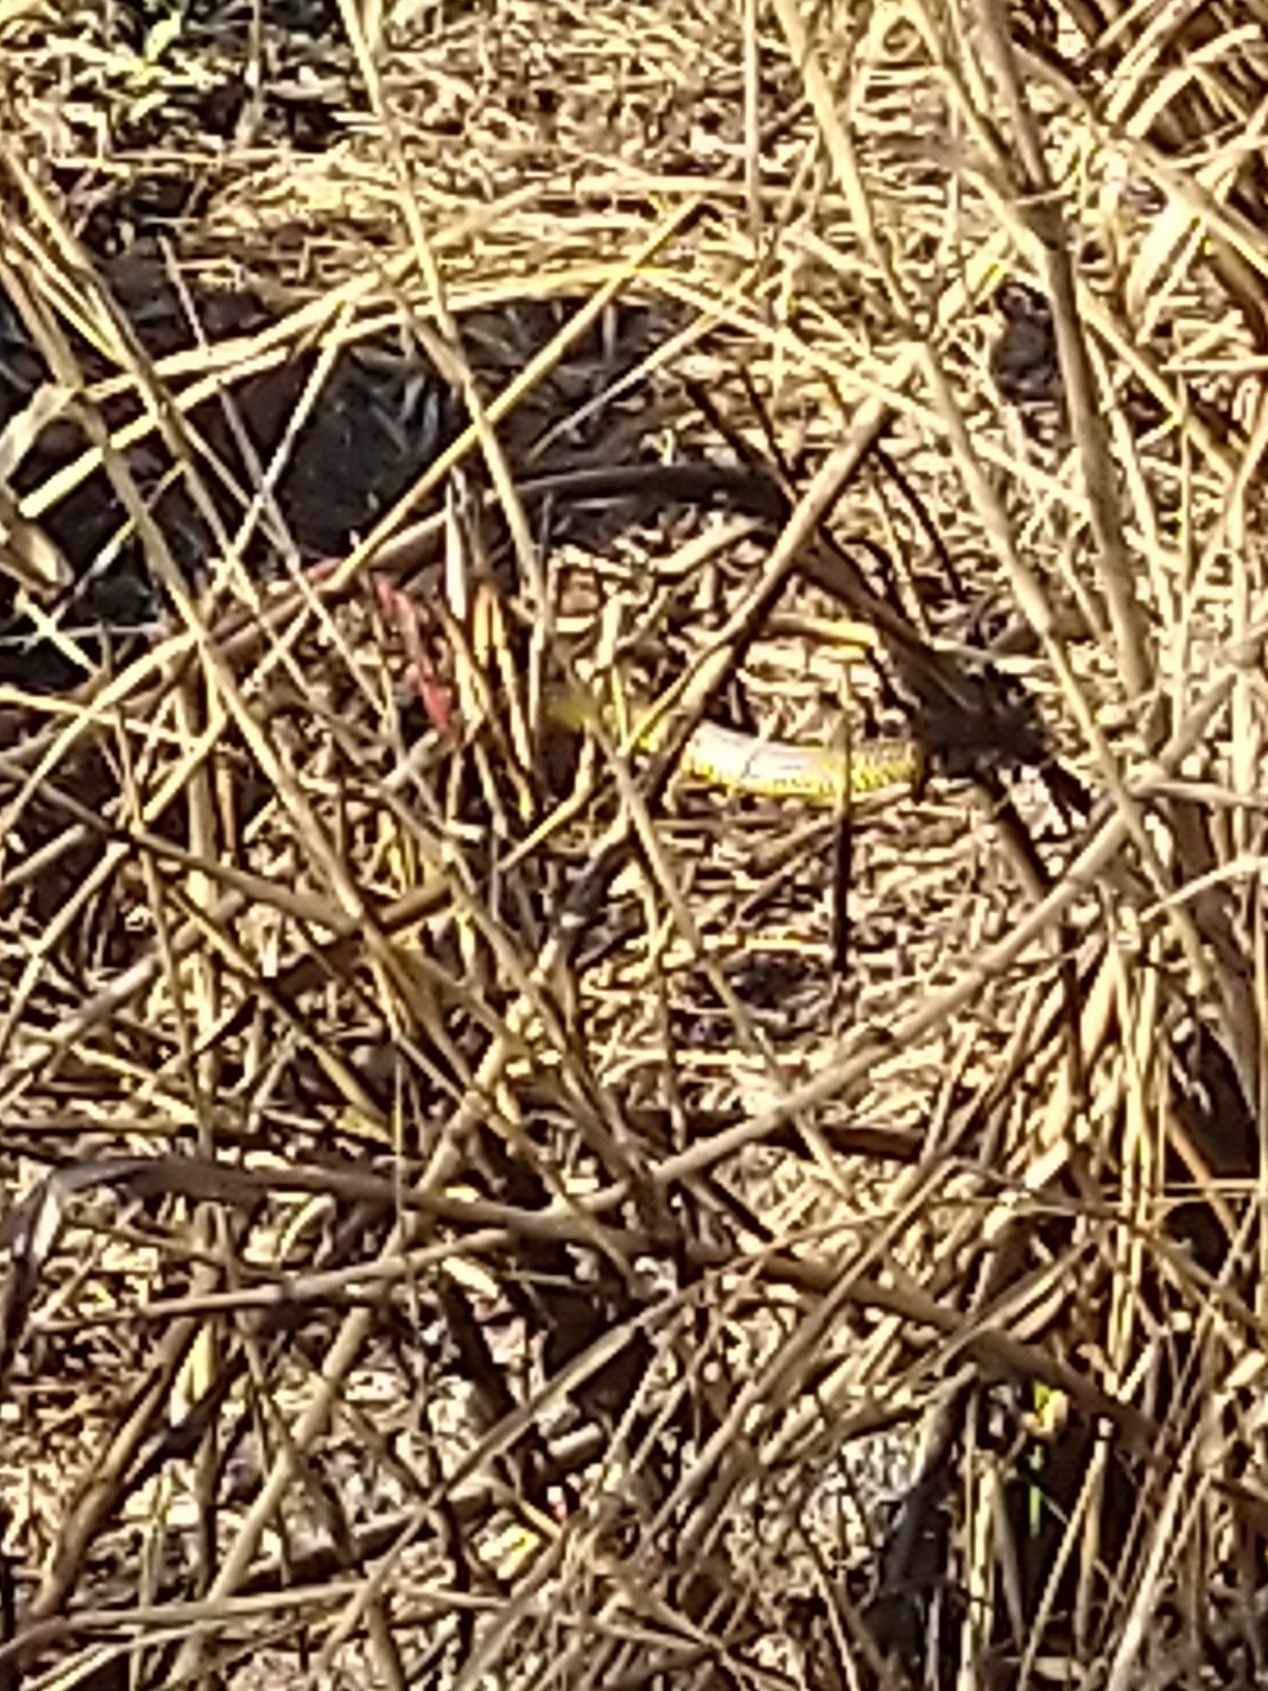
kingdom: Animalia
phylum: Chordata
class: Squamata
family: Colubridae
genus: Ptyas
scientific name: Ptyas mucosa
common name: Oriental ratsnake
